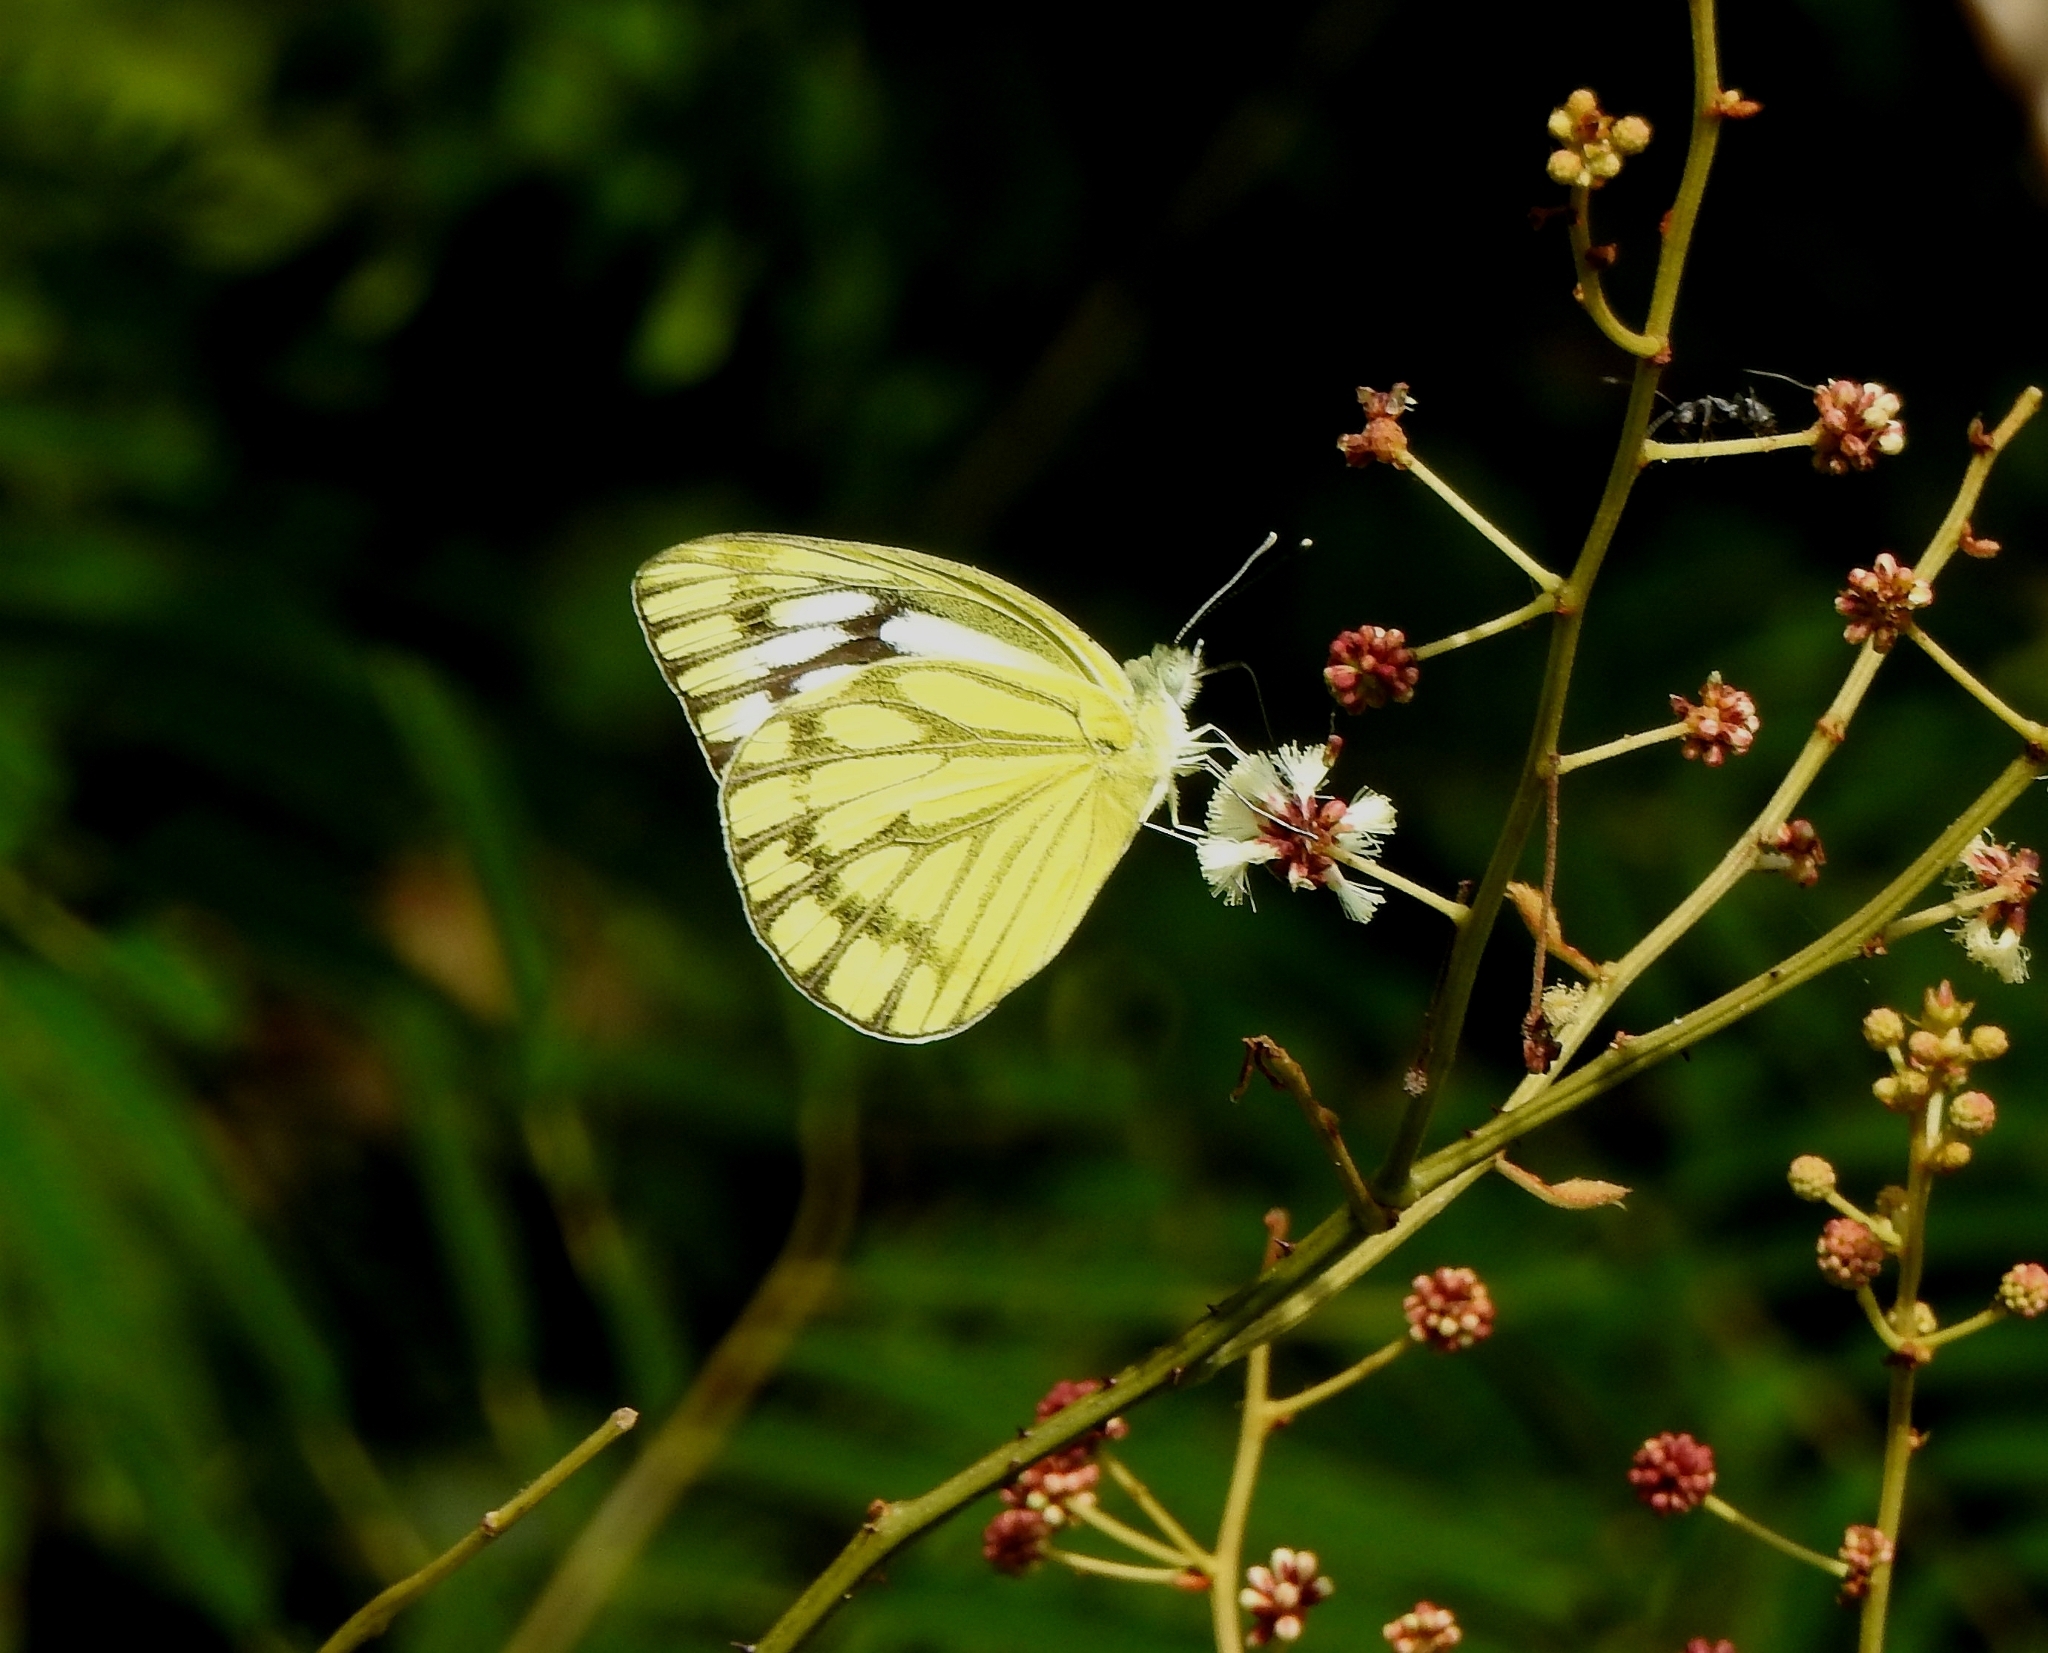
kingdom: Animalia
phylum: Arthropoda
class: Insecta
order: Lepidoptera
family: Pieridae
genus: Cepora
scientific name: Cepora nerissa
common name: Common gull
